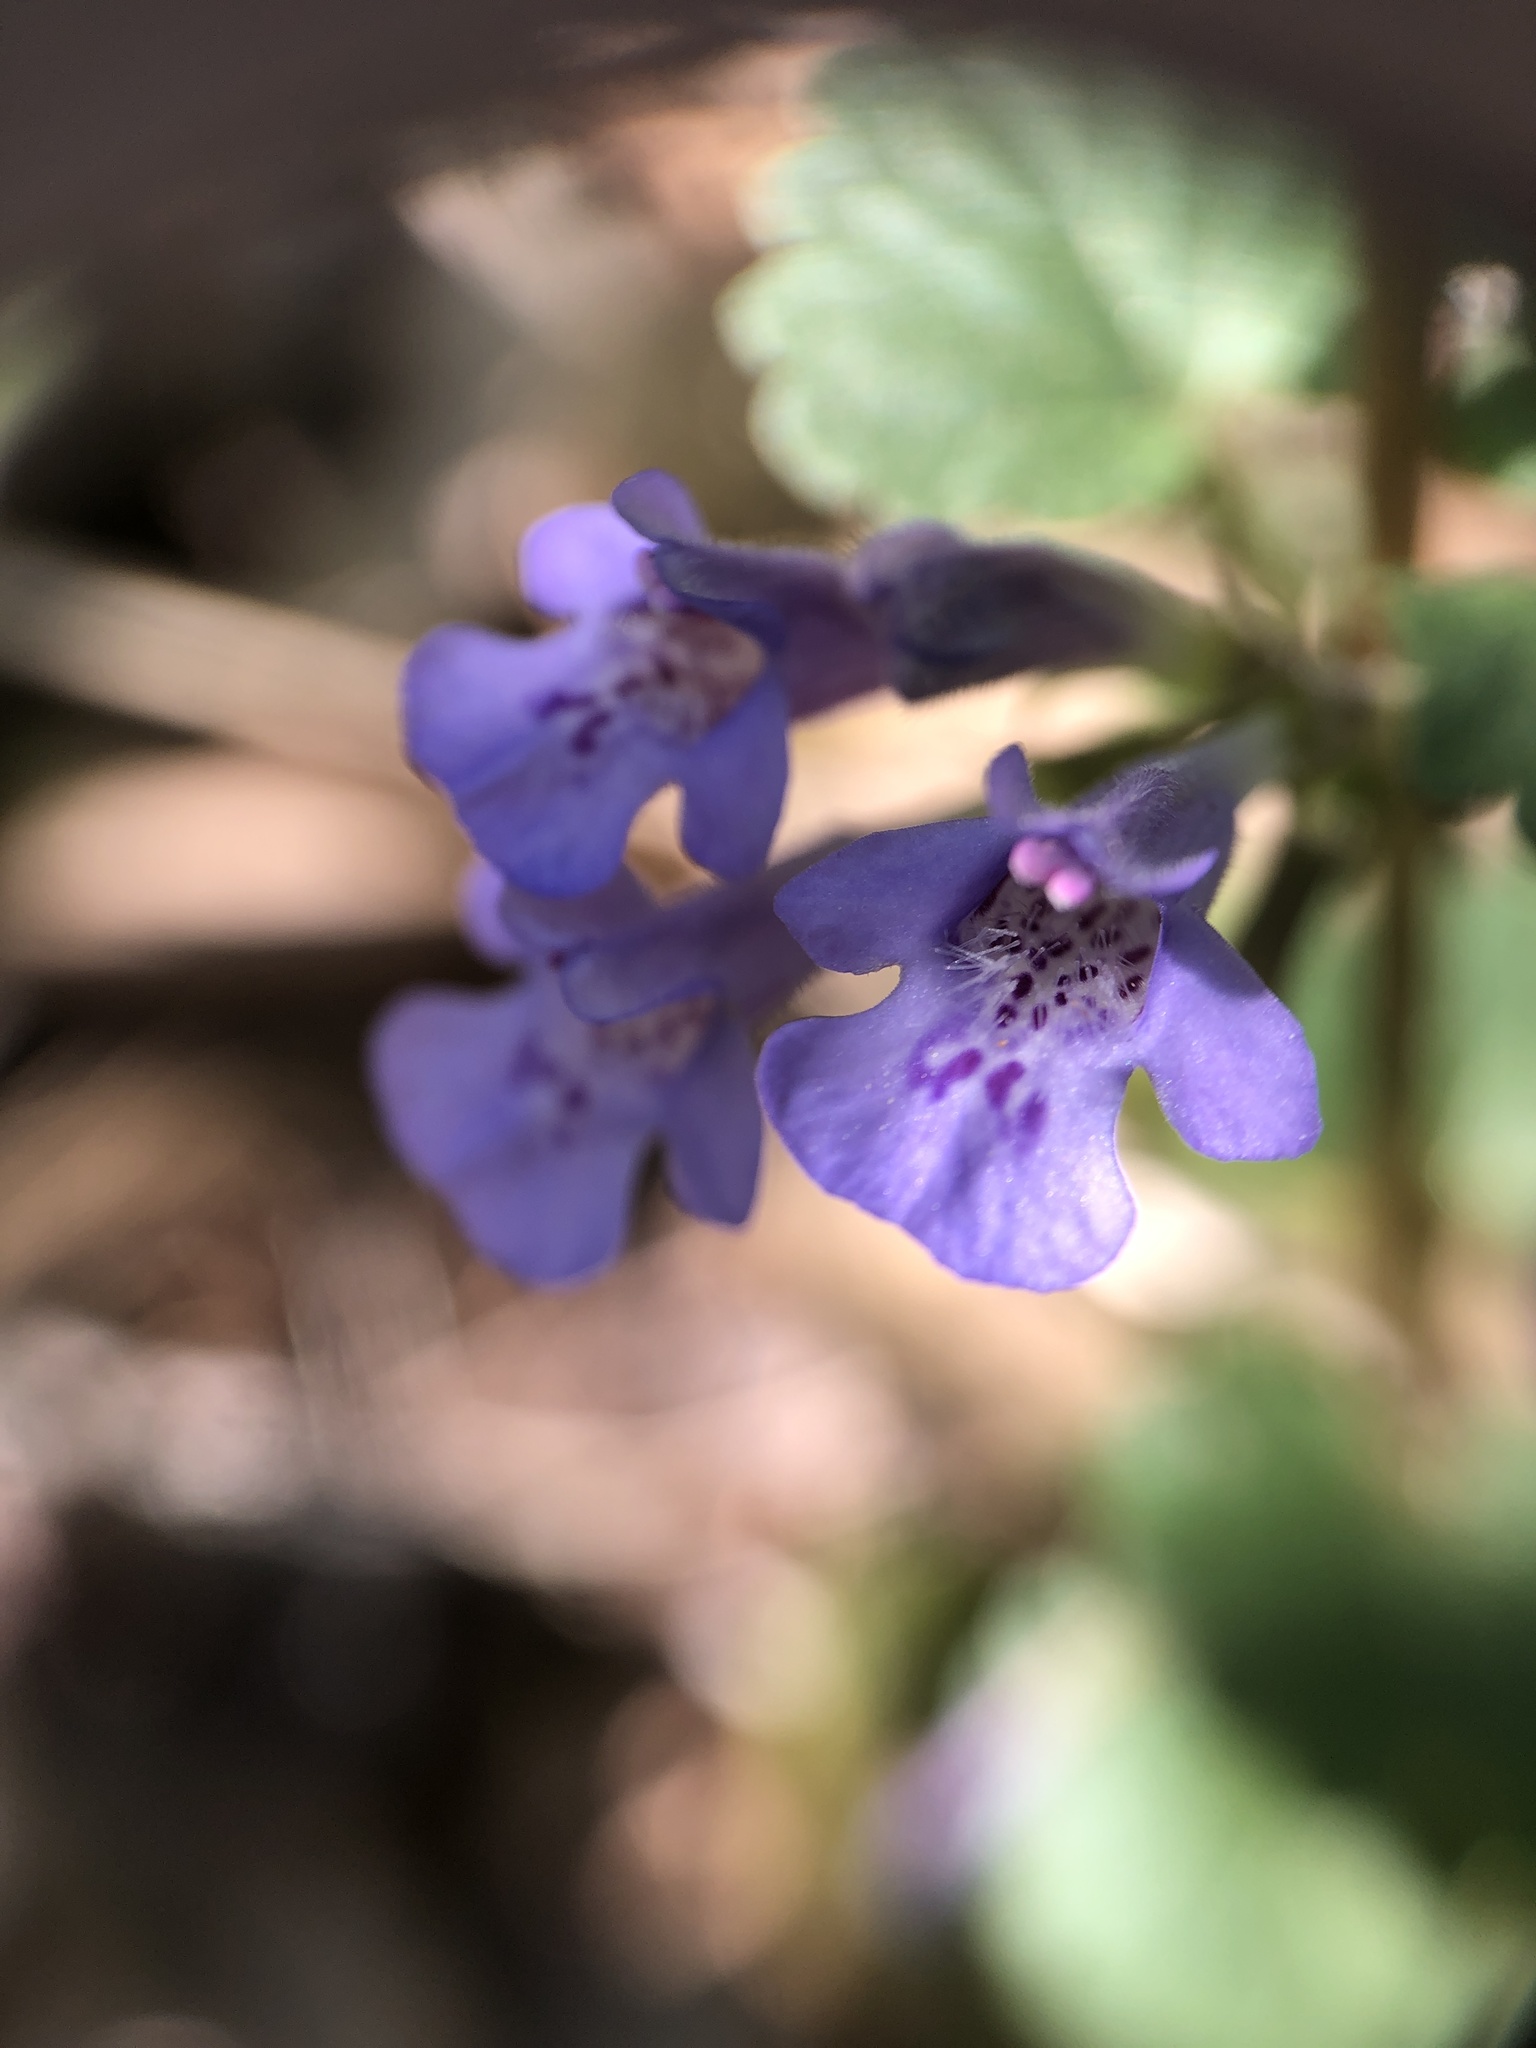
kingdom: Plantae
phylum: Tracheophyta
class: Magnoliopsida
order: Lamiales
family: Lamiaceae
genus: Glechoma
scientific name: Glechoma hederacea
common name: Ground ivy
